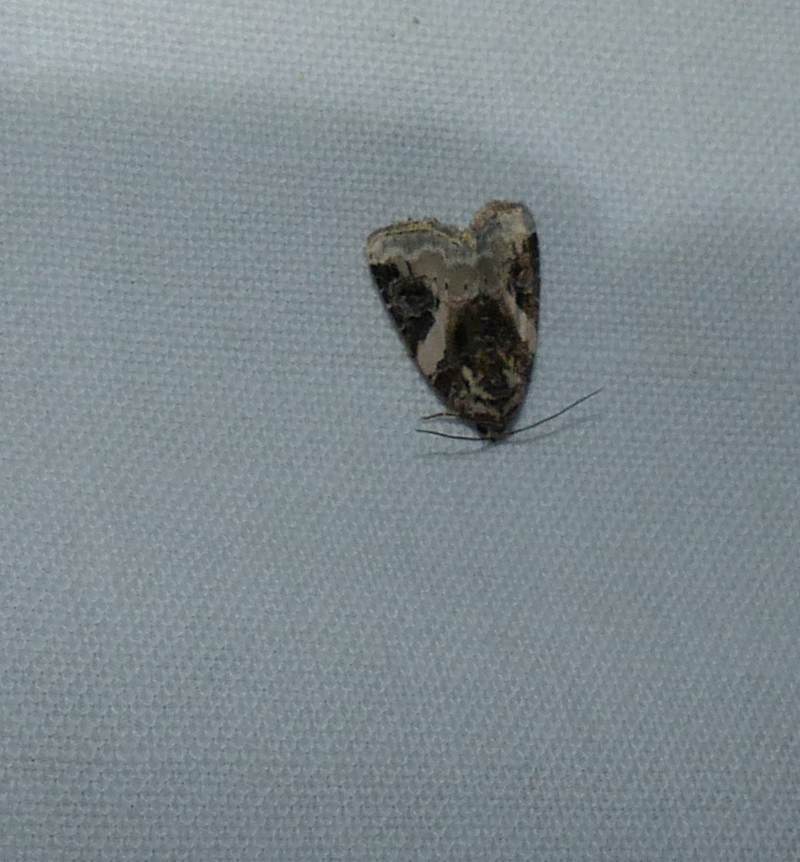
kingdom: Animalia
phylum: Arthropoda
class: Insecta
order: Lepidoptera
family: Noctuidae
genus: Pseudeustrotia
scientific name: Pseudeustrotia carneola
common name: Pink-barred lithacodia moth
